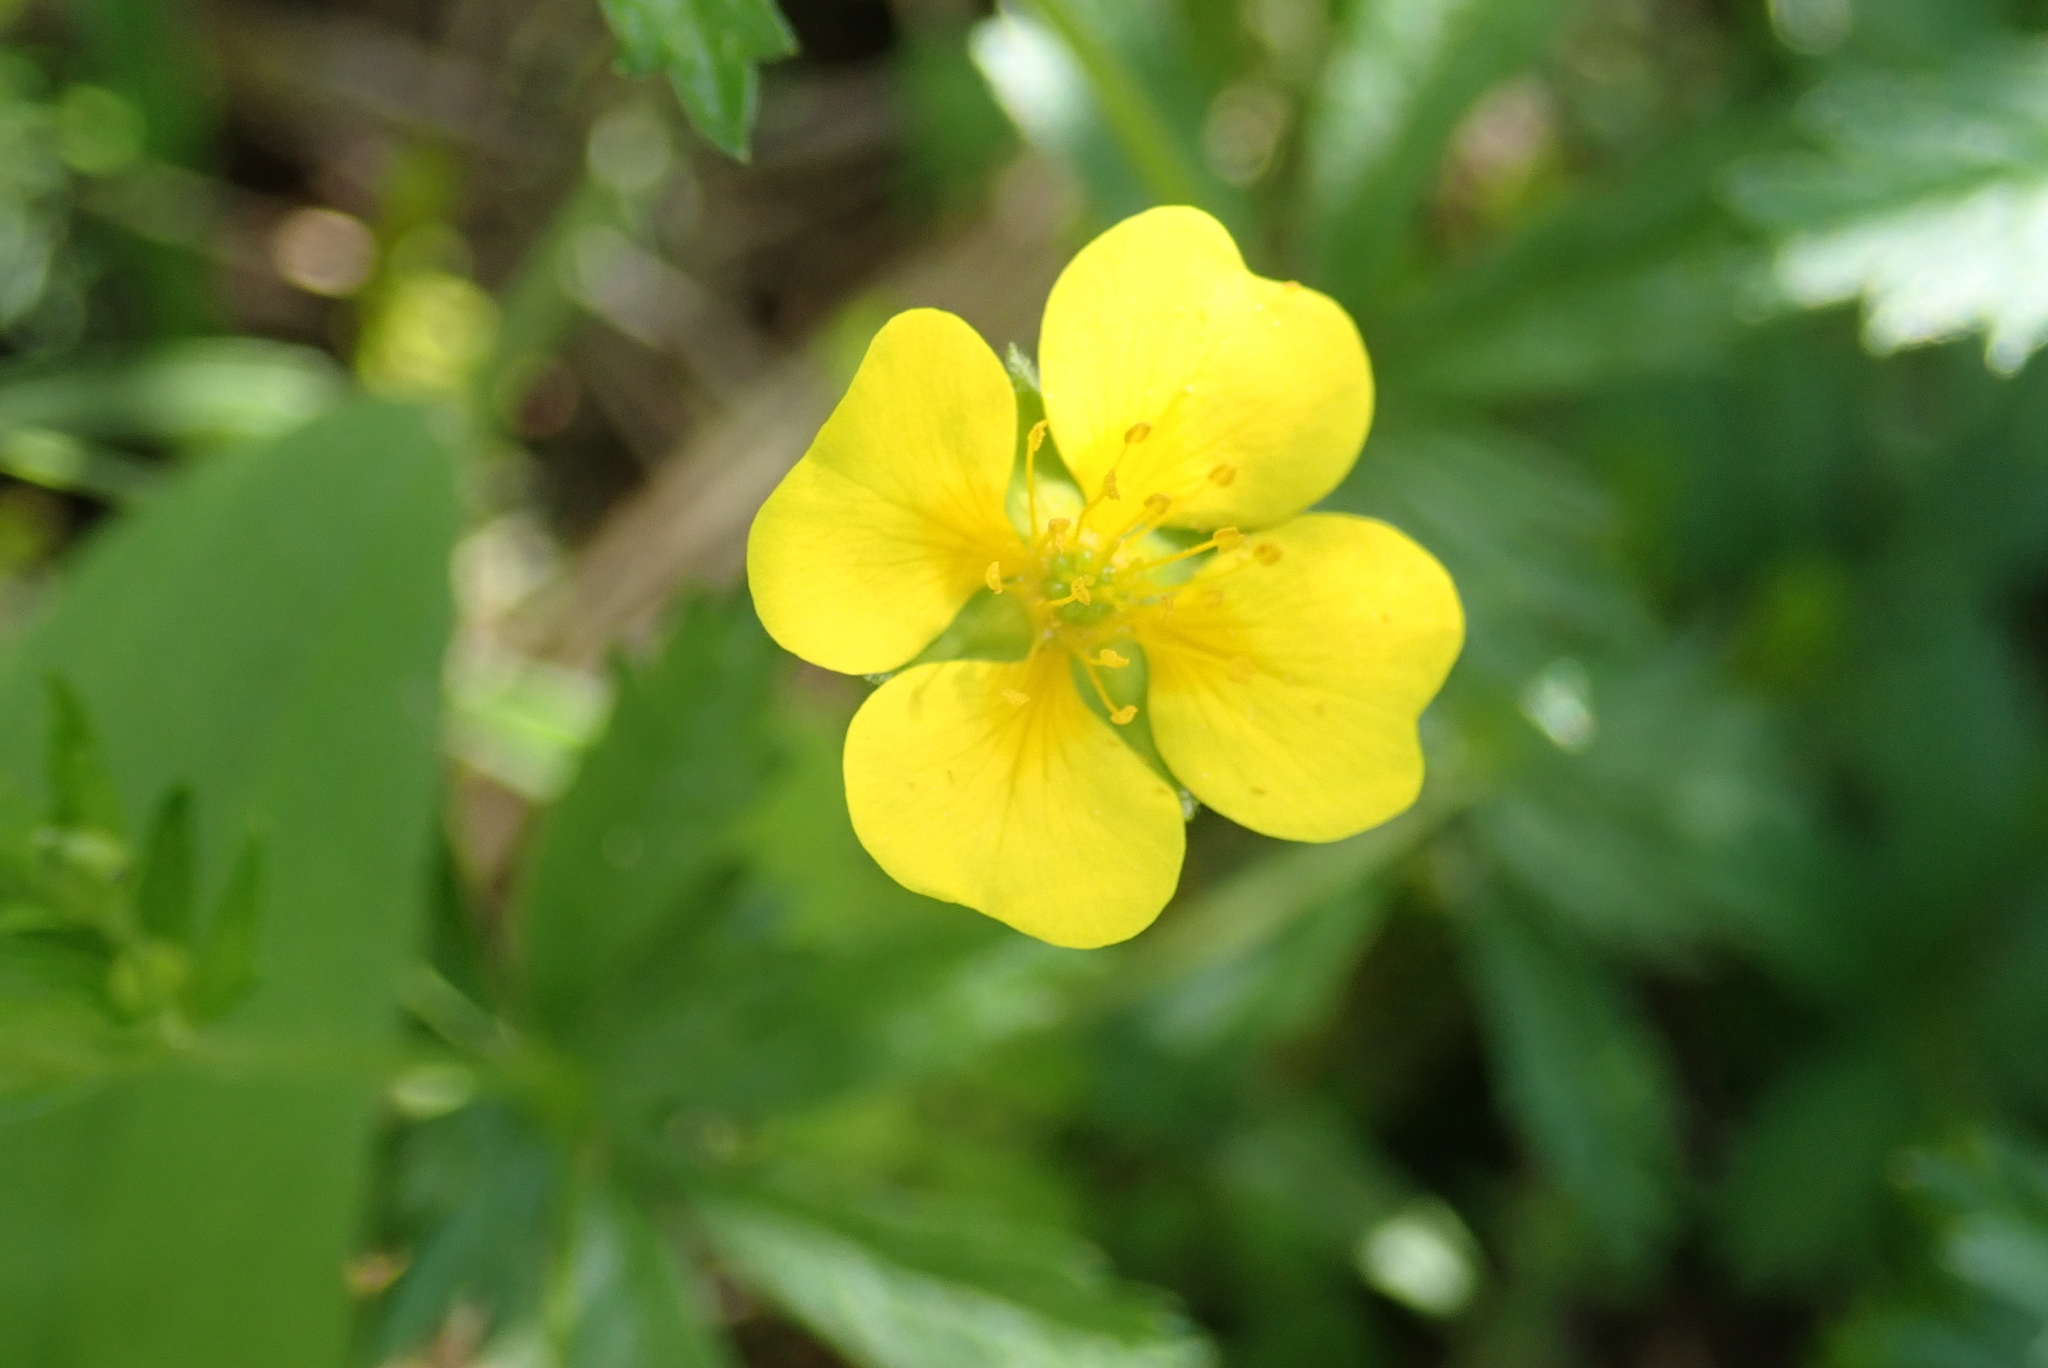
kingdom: Plantae
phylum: Tracheophyta
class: Magnoliopsida
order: Rosales
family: Rosaceae
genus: Potentilla
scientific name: Potentilla erecta
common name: Tormentil
